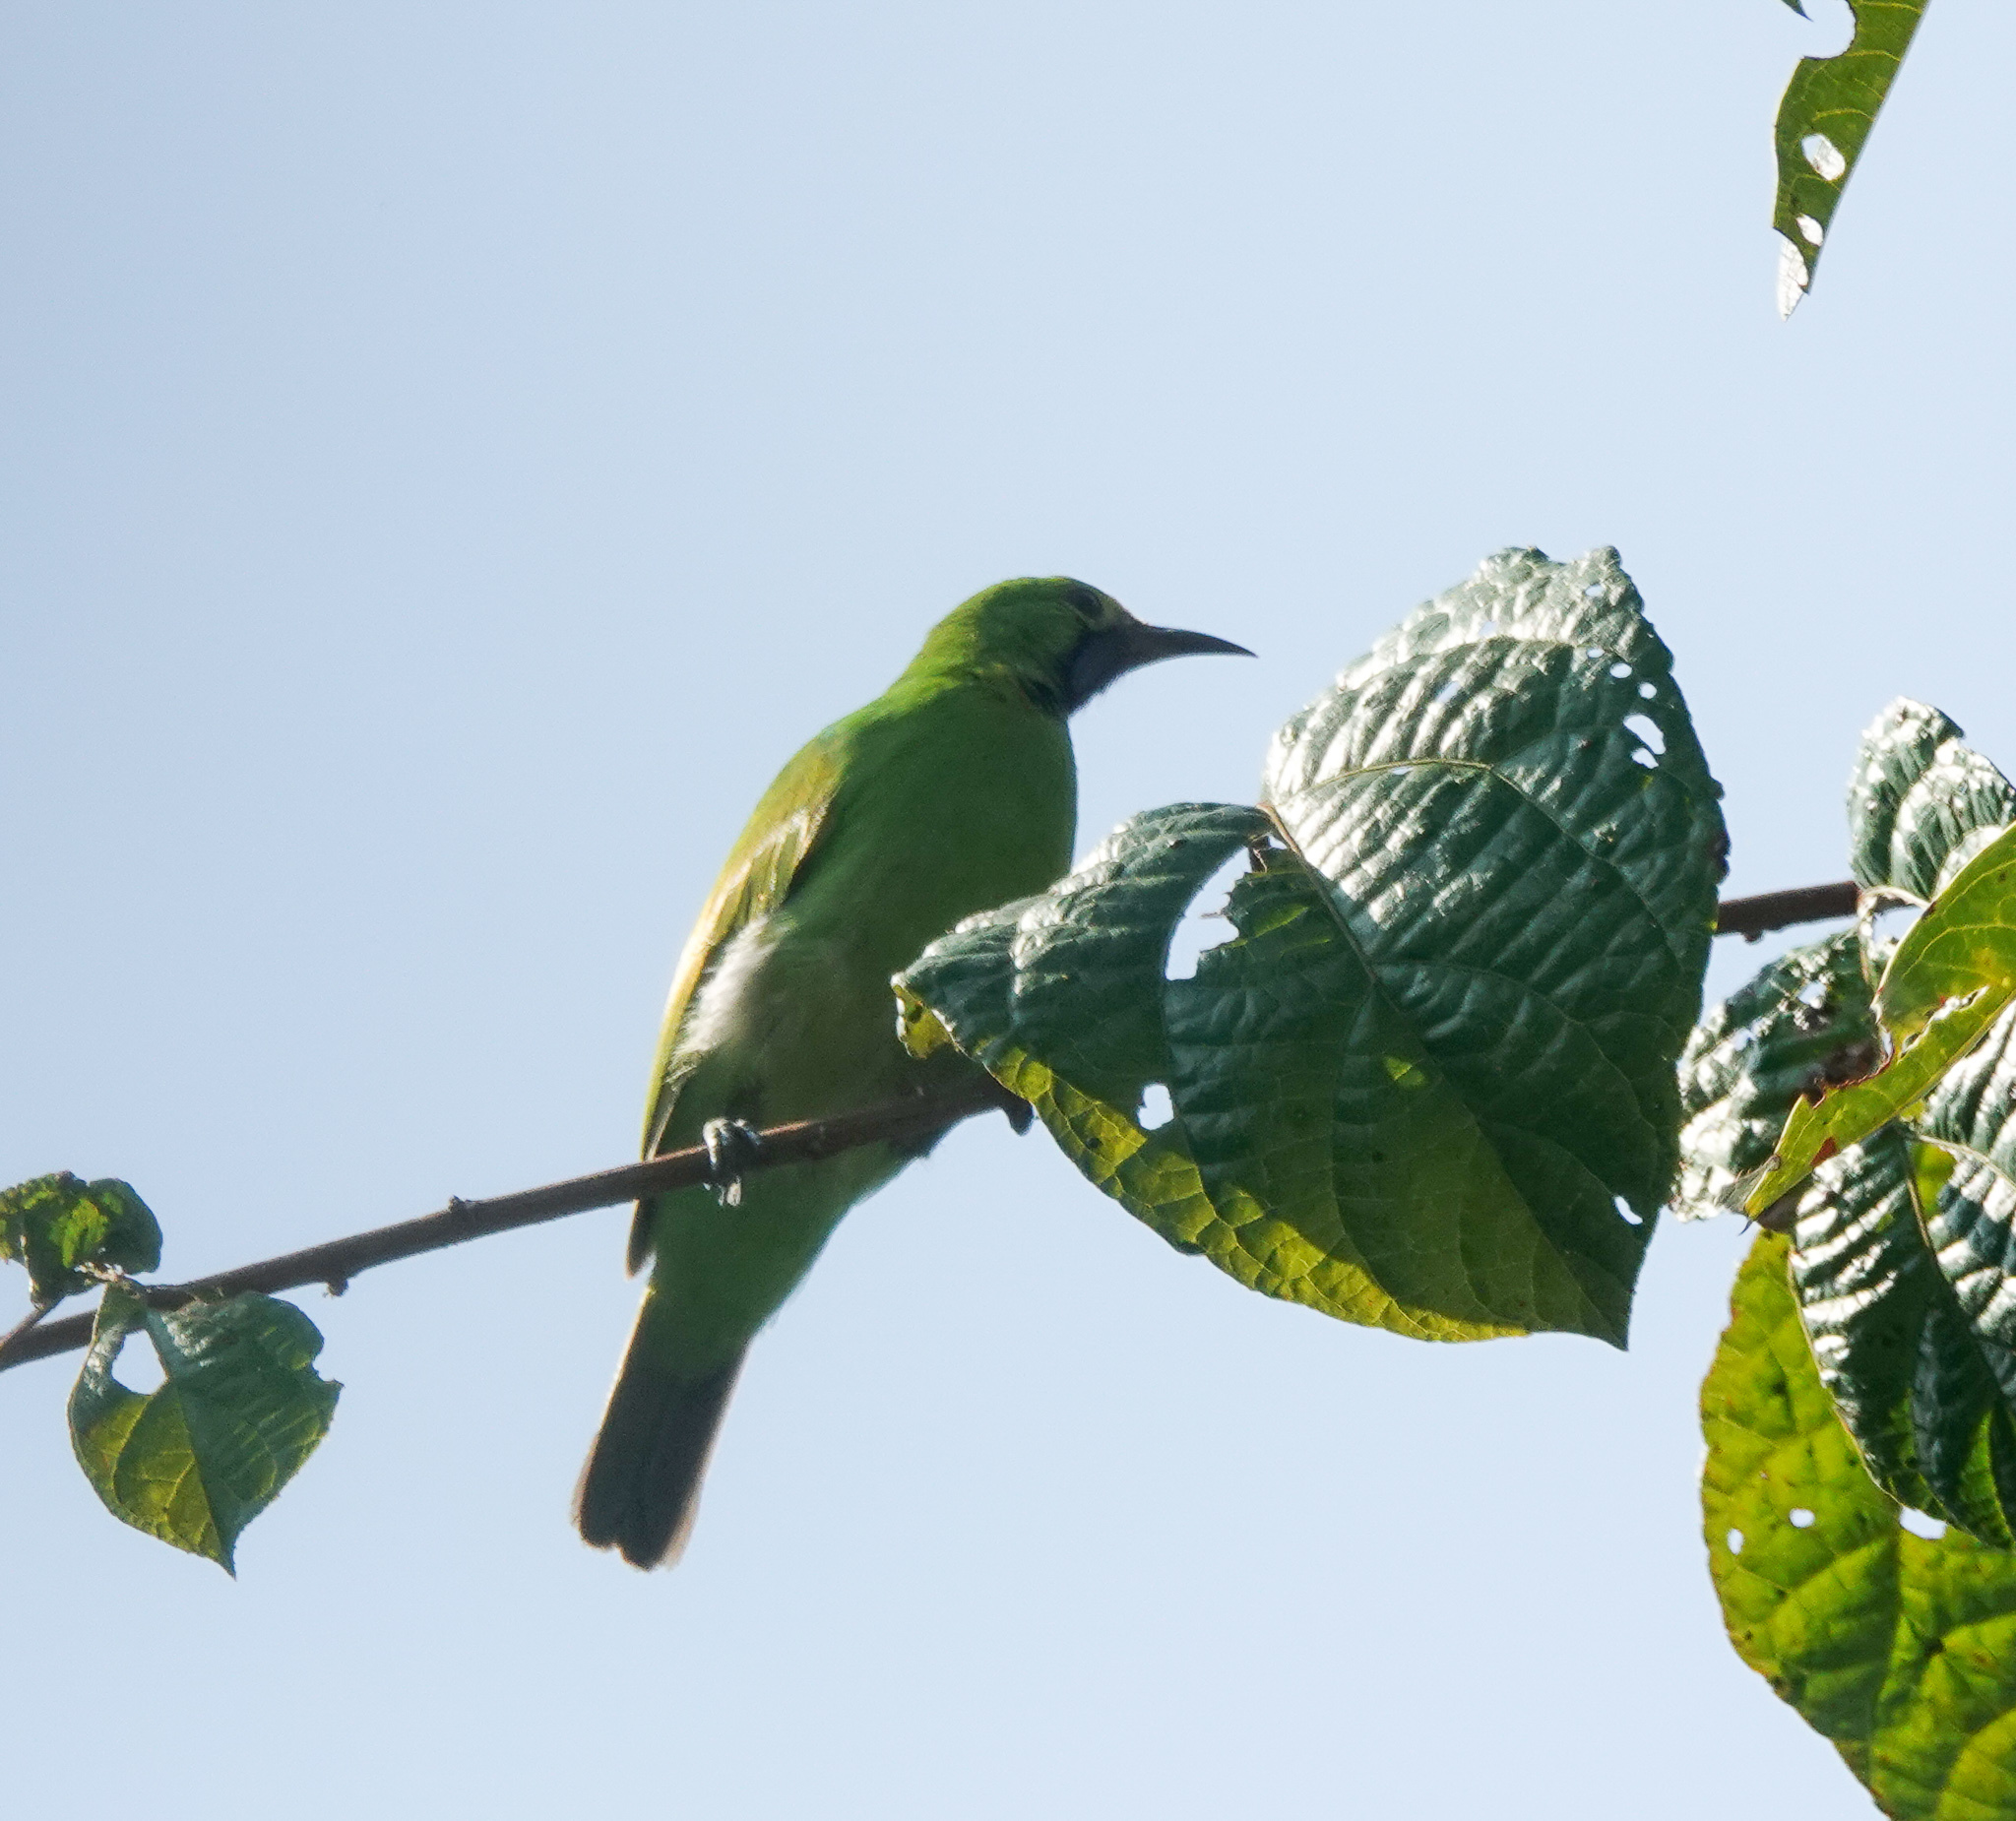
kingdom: Animalia
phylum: Chordata
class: Aves
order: Passeriformes
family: Chloropseidae
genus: Chloropsis
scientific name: Chloropsis aurifrons
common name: Golden-fronted leafbird
